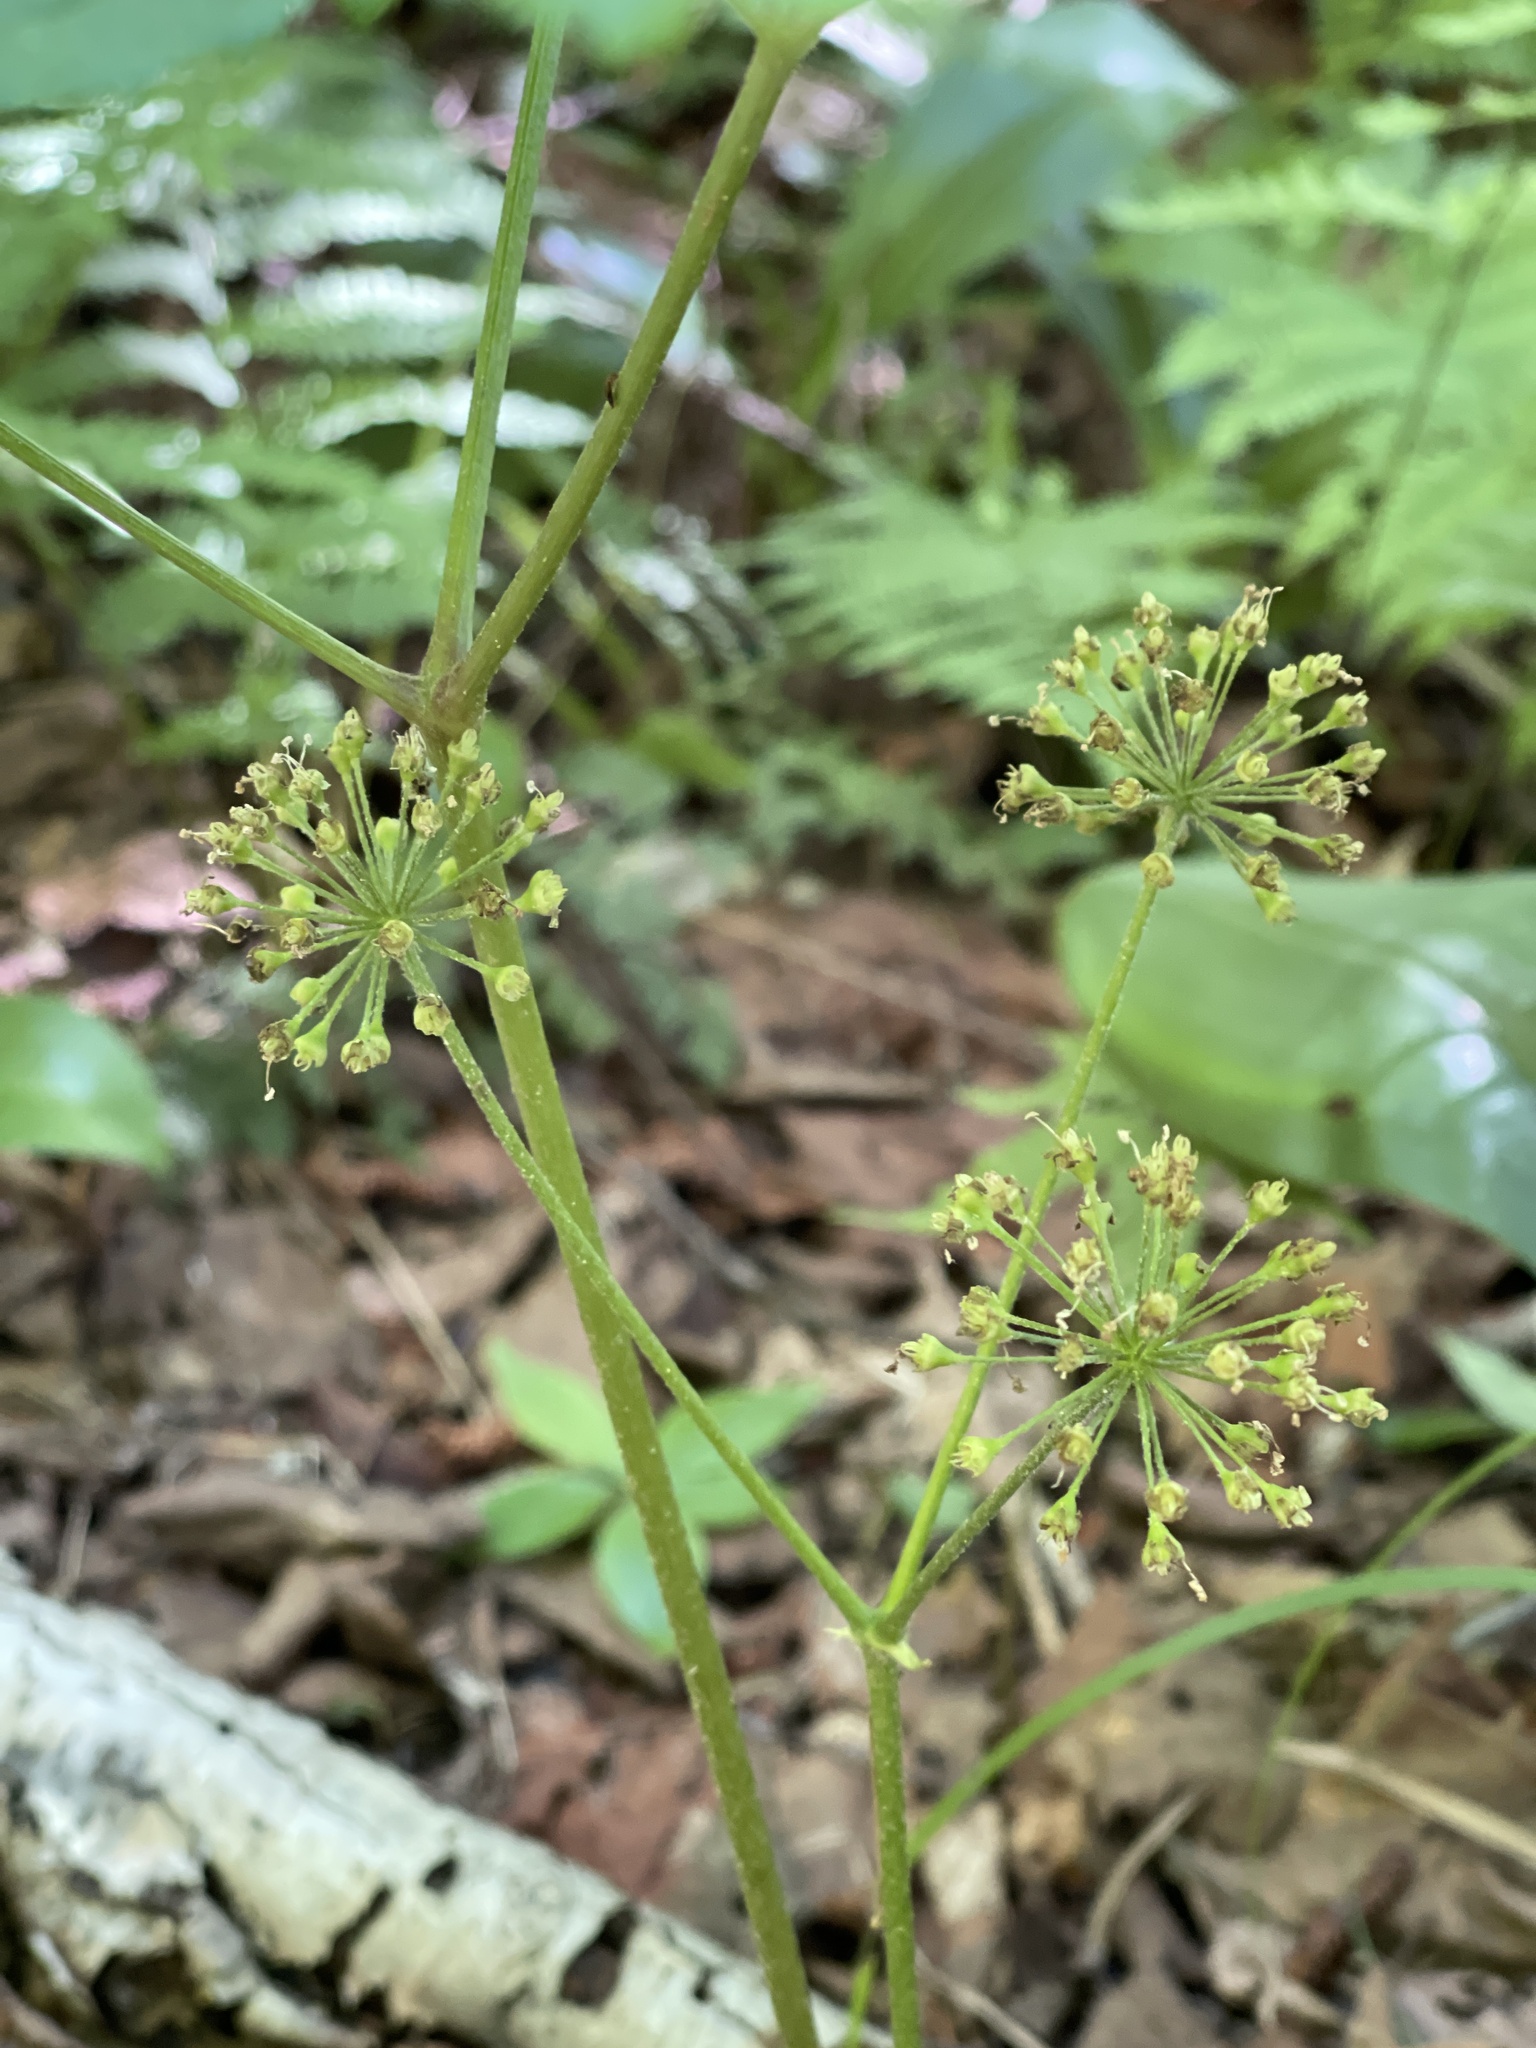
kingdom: Plantae
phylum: Tracheophyta
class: Magnoliopsida
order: Apiales
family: Araliaceae
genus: Aralia
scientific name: Aralia nudicaulis
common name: Wild sarsaparilla
